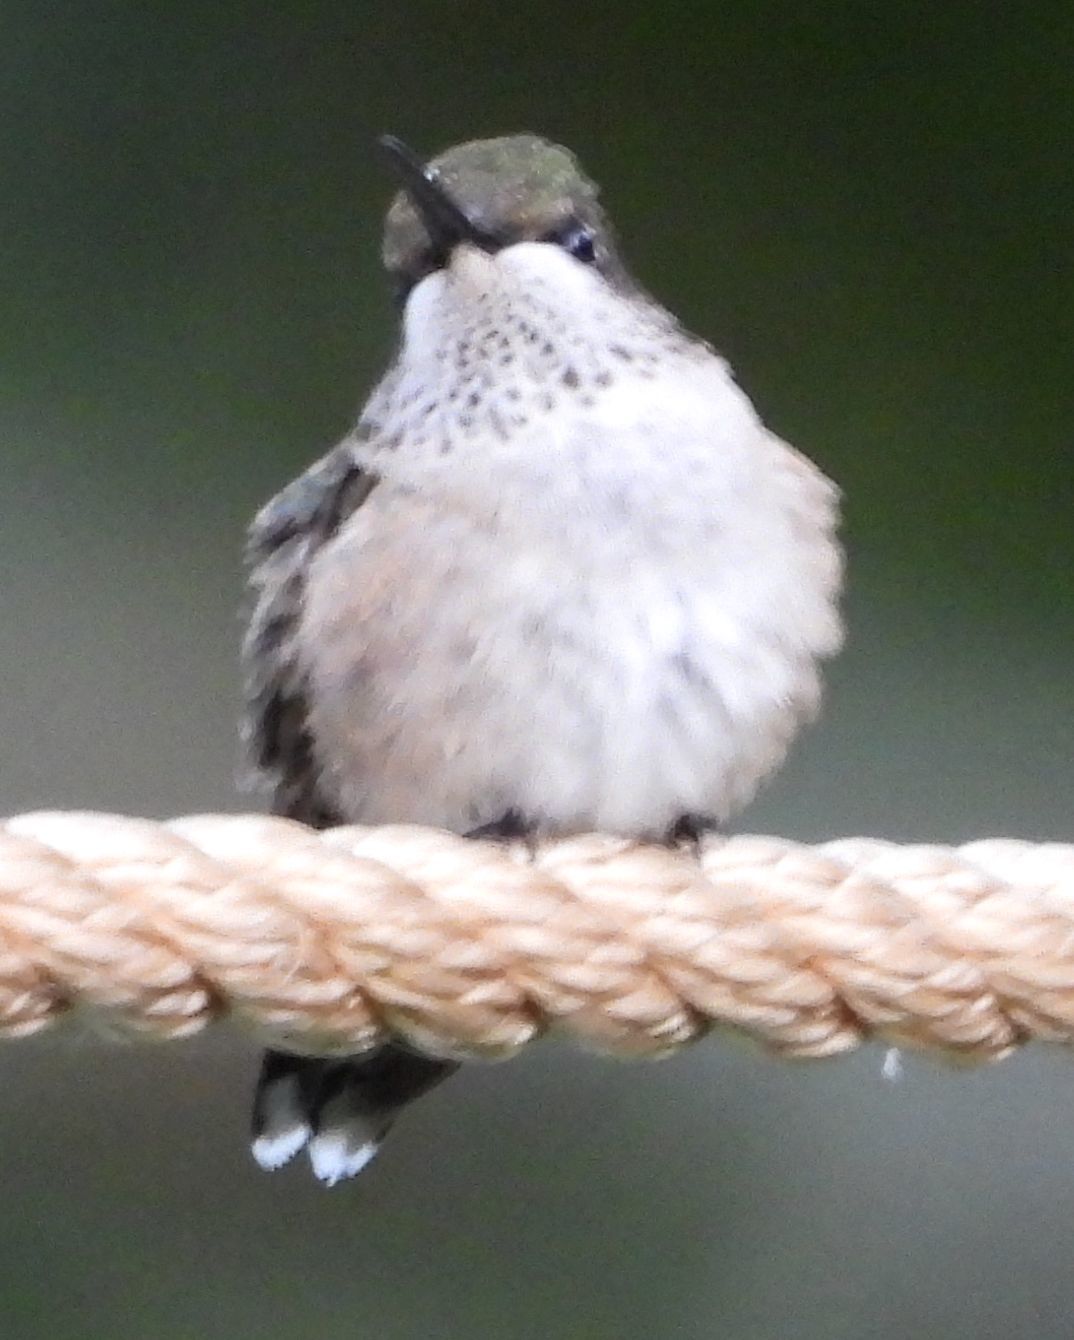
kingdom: Animalia
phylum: Chordata
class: Aves
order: Apodiformes
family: Trochilidae
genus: Archilochus
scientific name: Archilochus colubris
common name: Ruby-throated hummingbird
